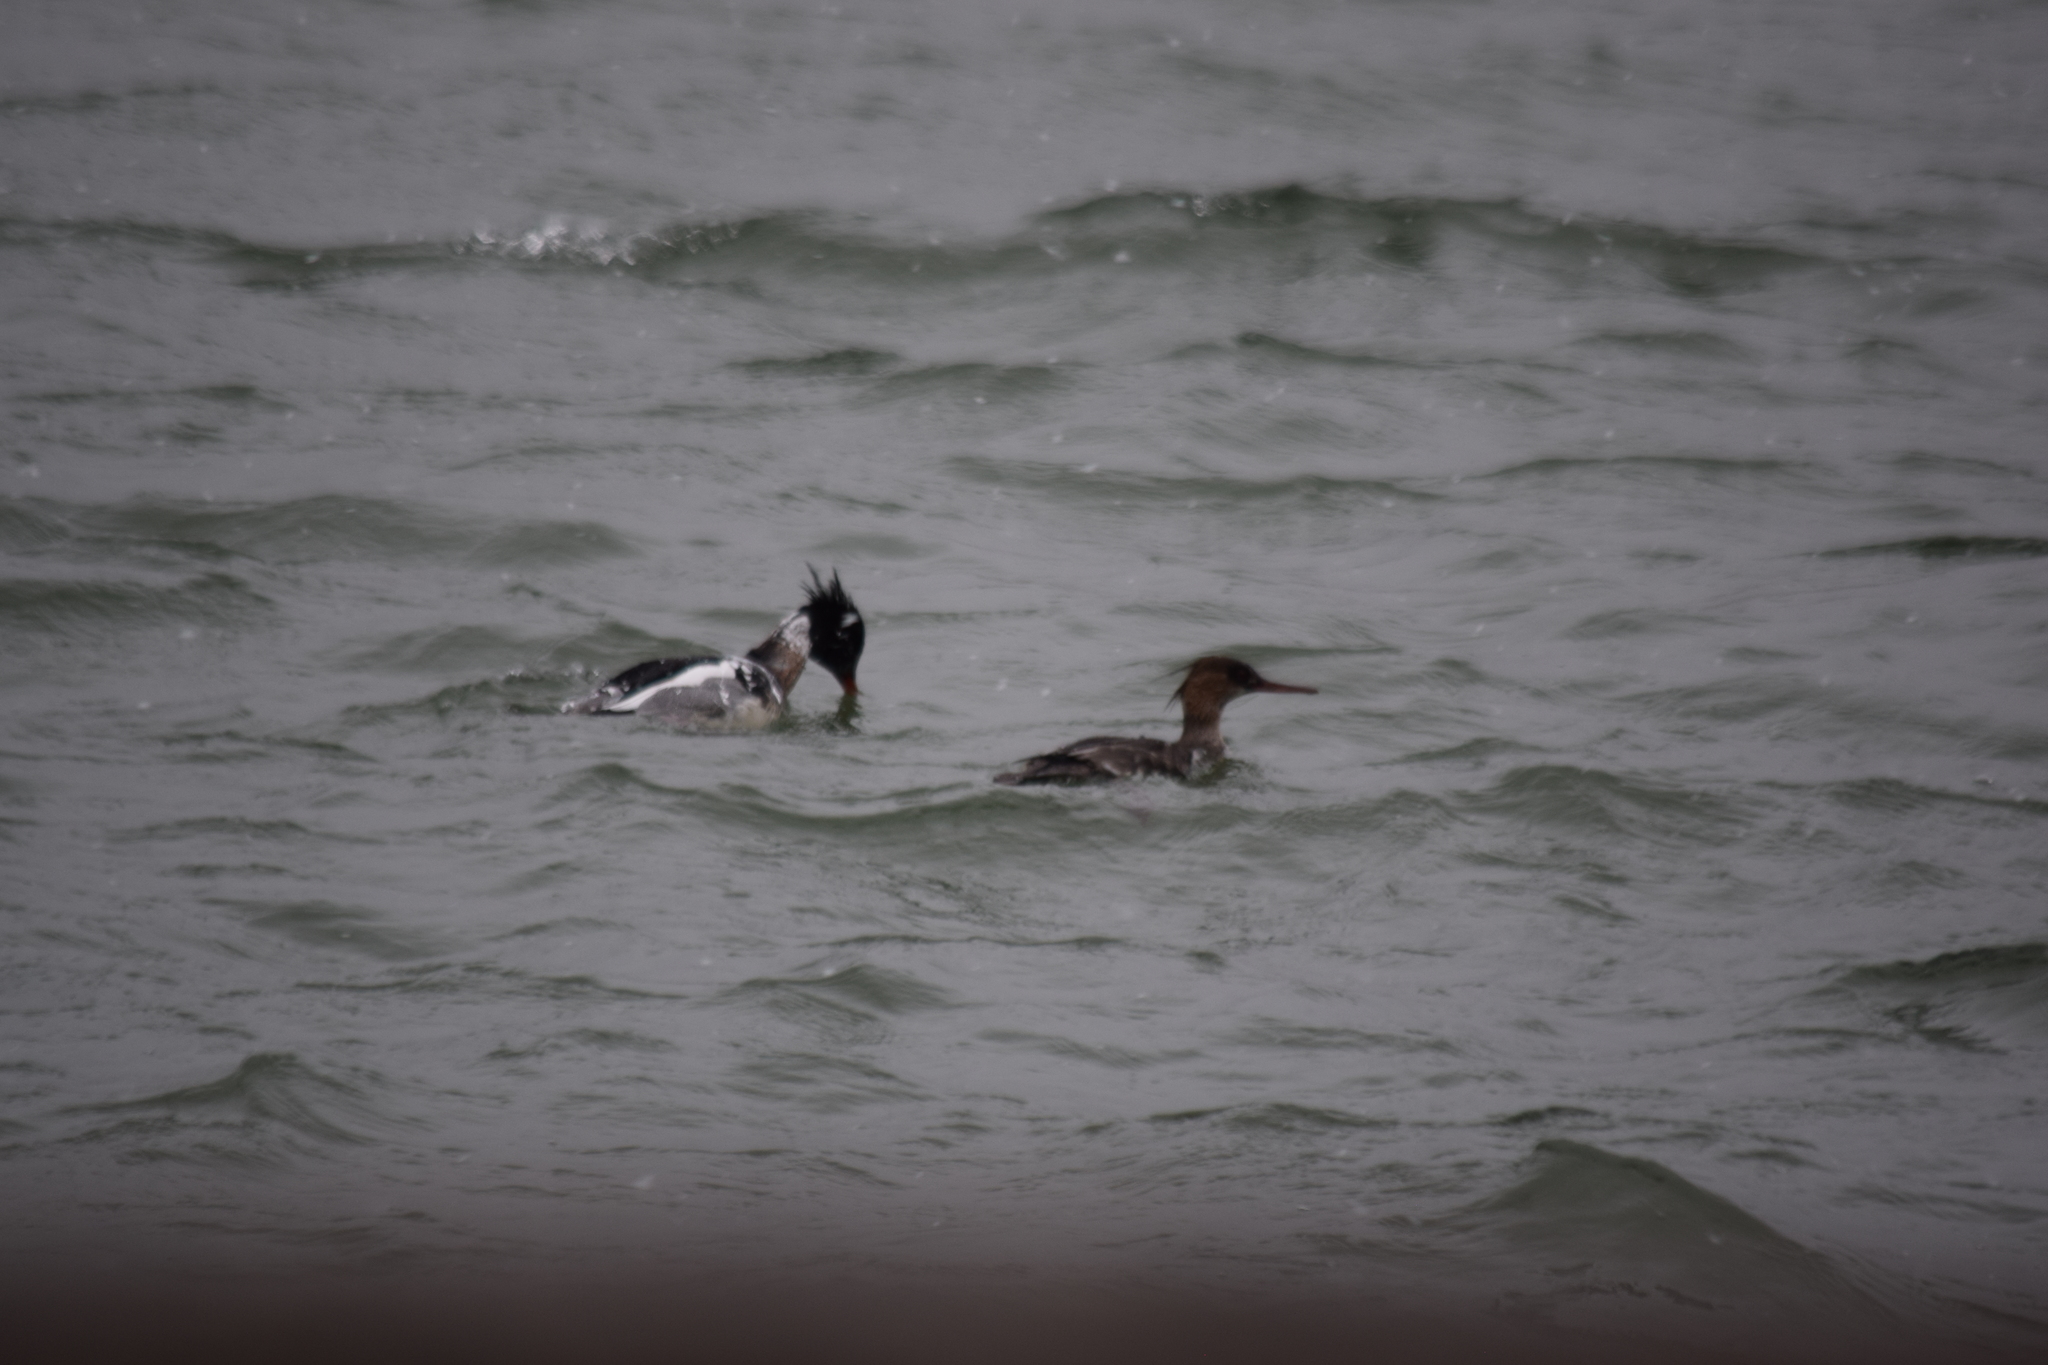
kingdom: Animalia
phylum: Chordata
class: Aves
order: Anseriformes
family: Anatidae
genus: Mergus
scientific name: Mergus serrator
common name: Red-breasted merganser
